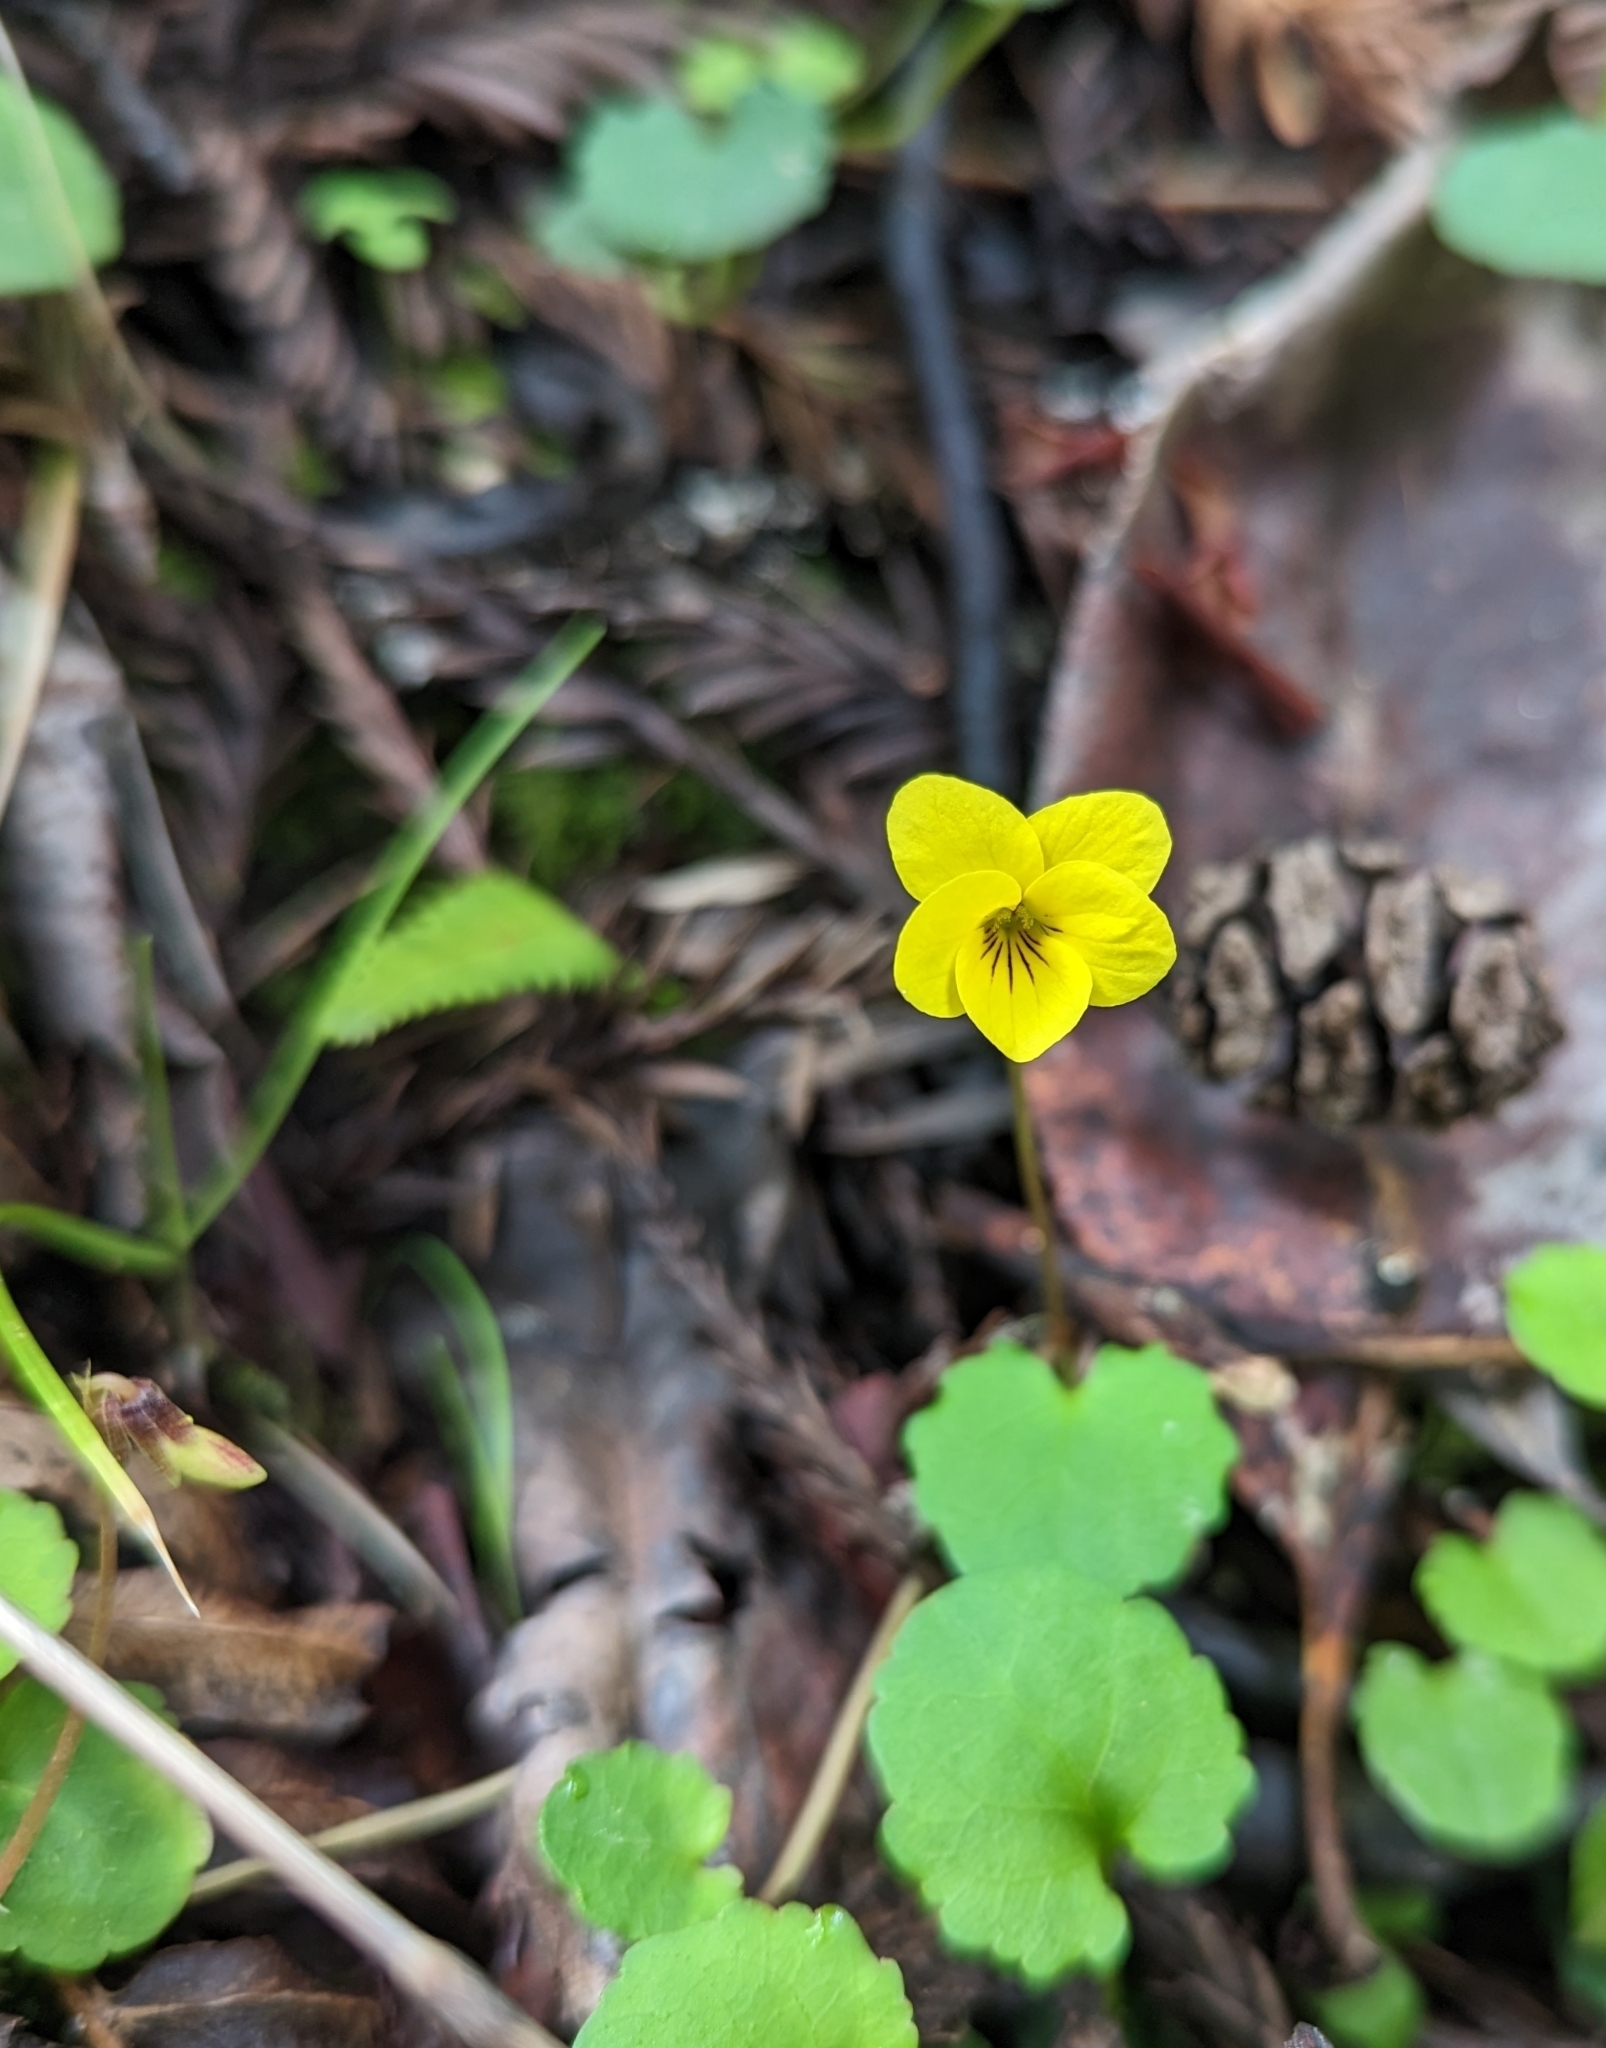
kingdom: Plantae
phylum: Tracheophyta
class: Magnoliopsida
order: Malpighiales
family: Violaceae
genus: Viola
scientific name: Viola sempervirens
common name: Evergreen violet
